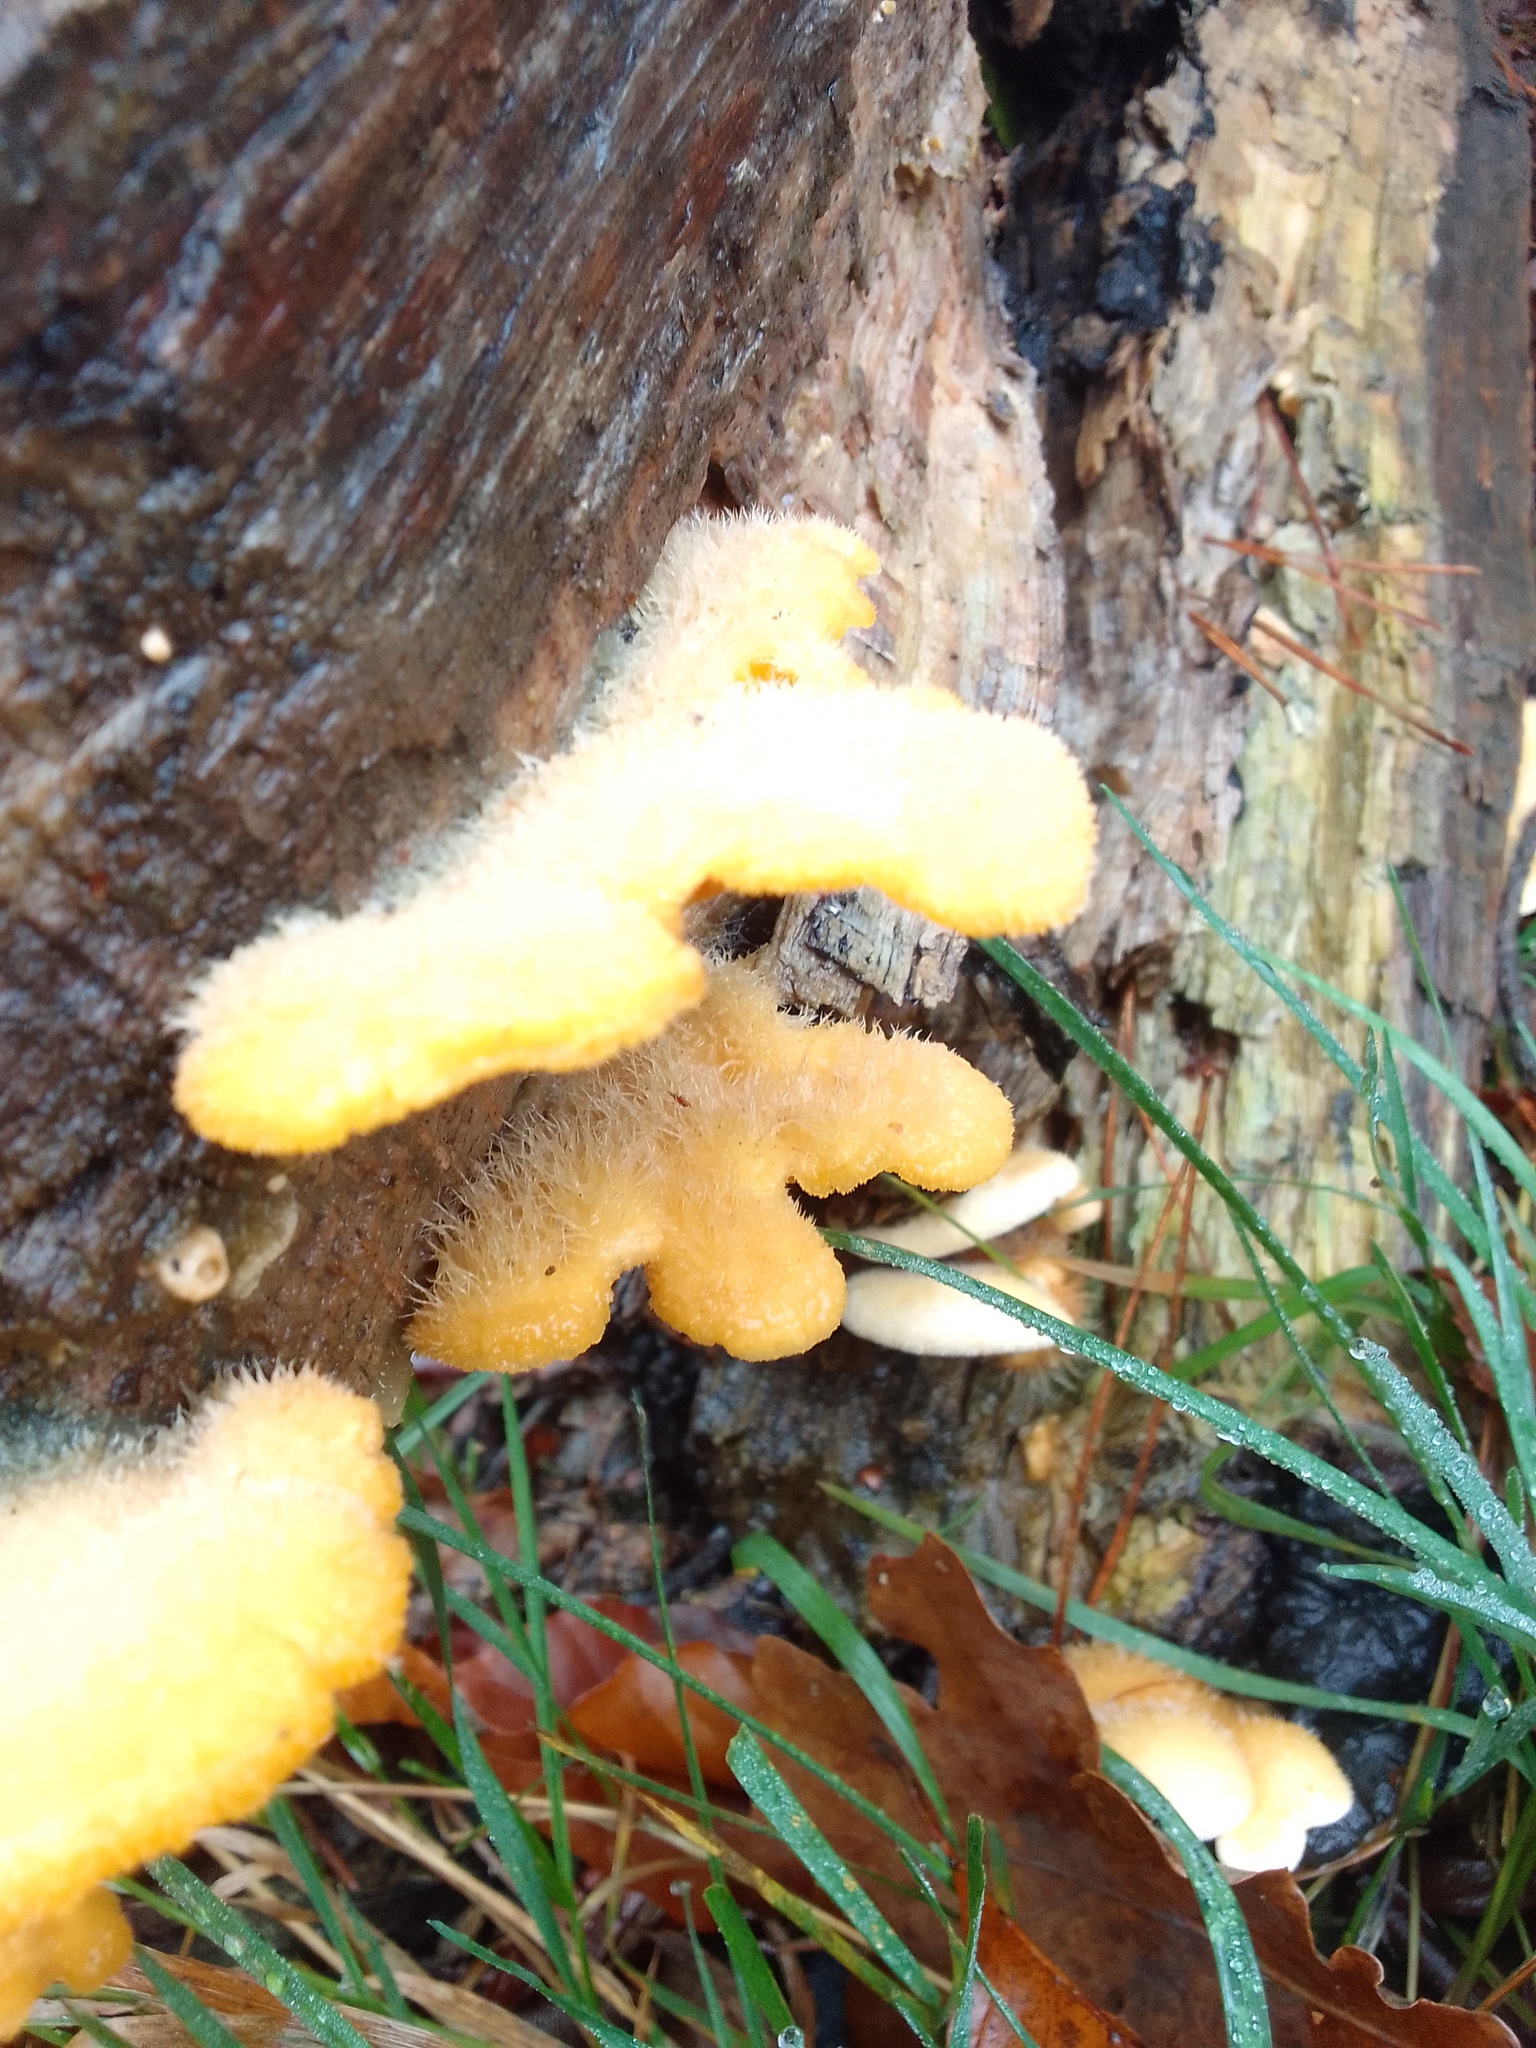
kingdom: Fungi
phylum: Basidiomycota
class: Agaricomycetes
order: Agaricales
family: Phyllotopsidaceae
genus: Phyllotopsis
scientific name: Phyllotopsis nidulans
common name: Orange mock oyster
